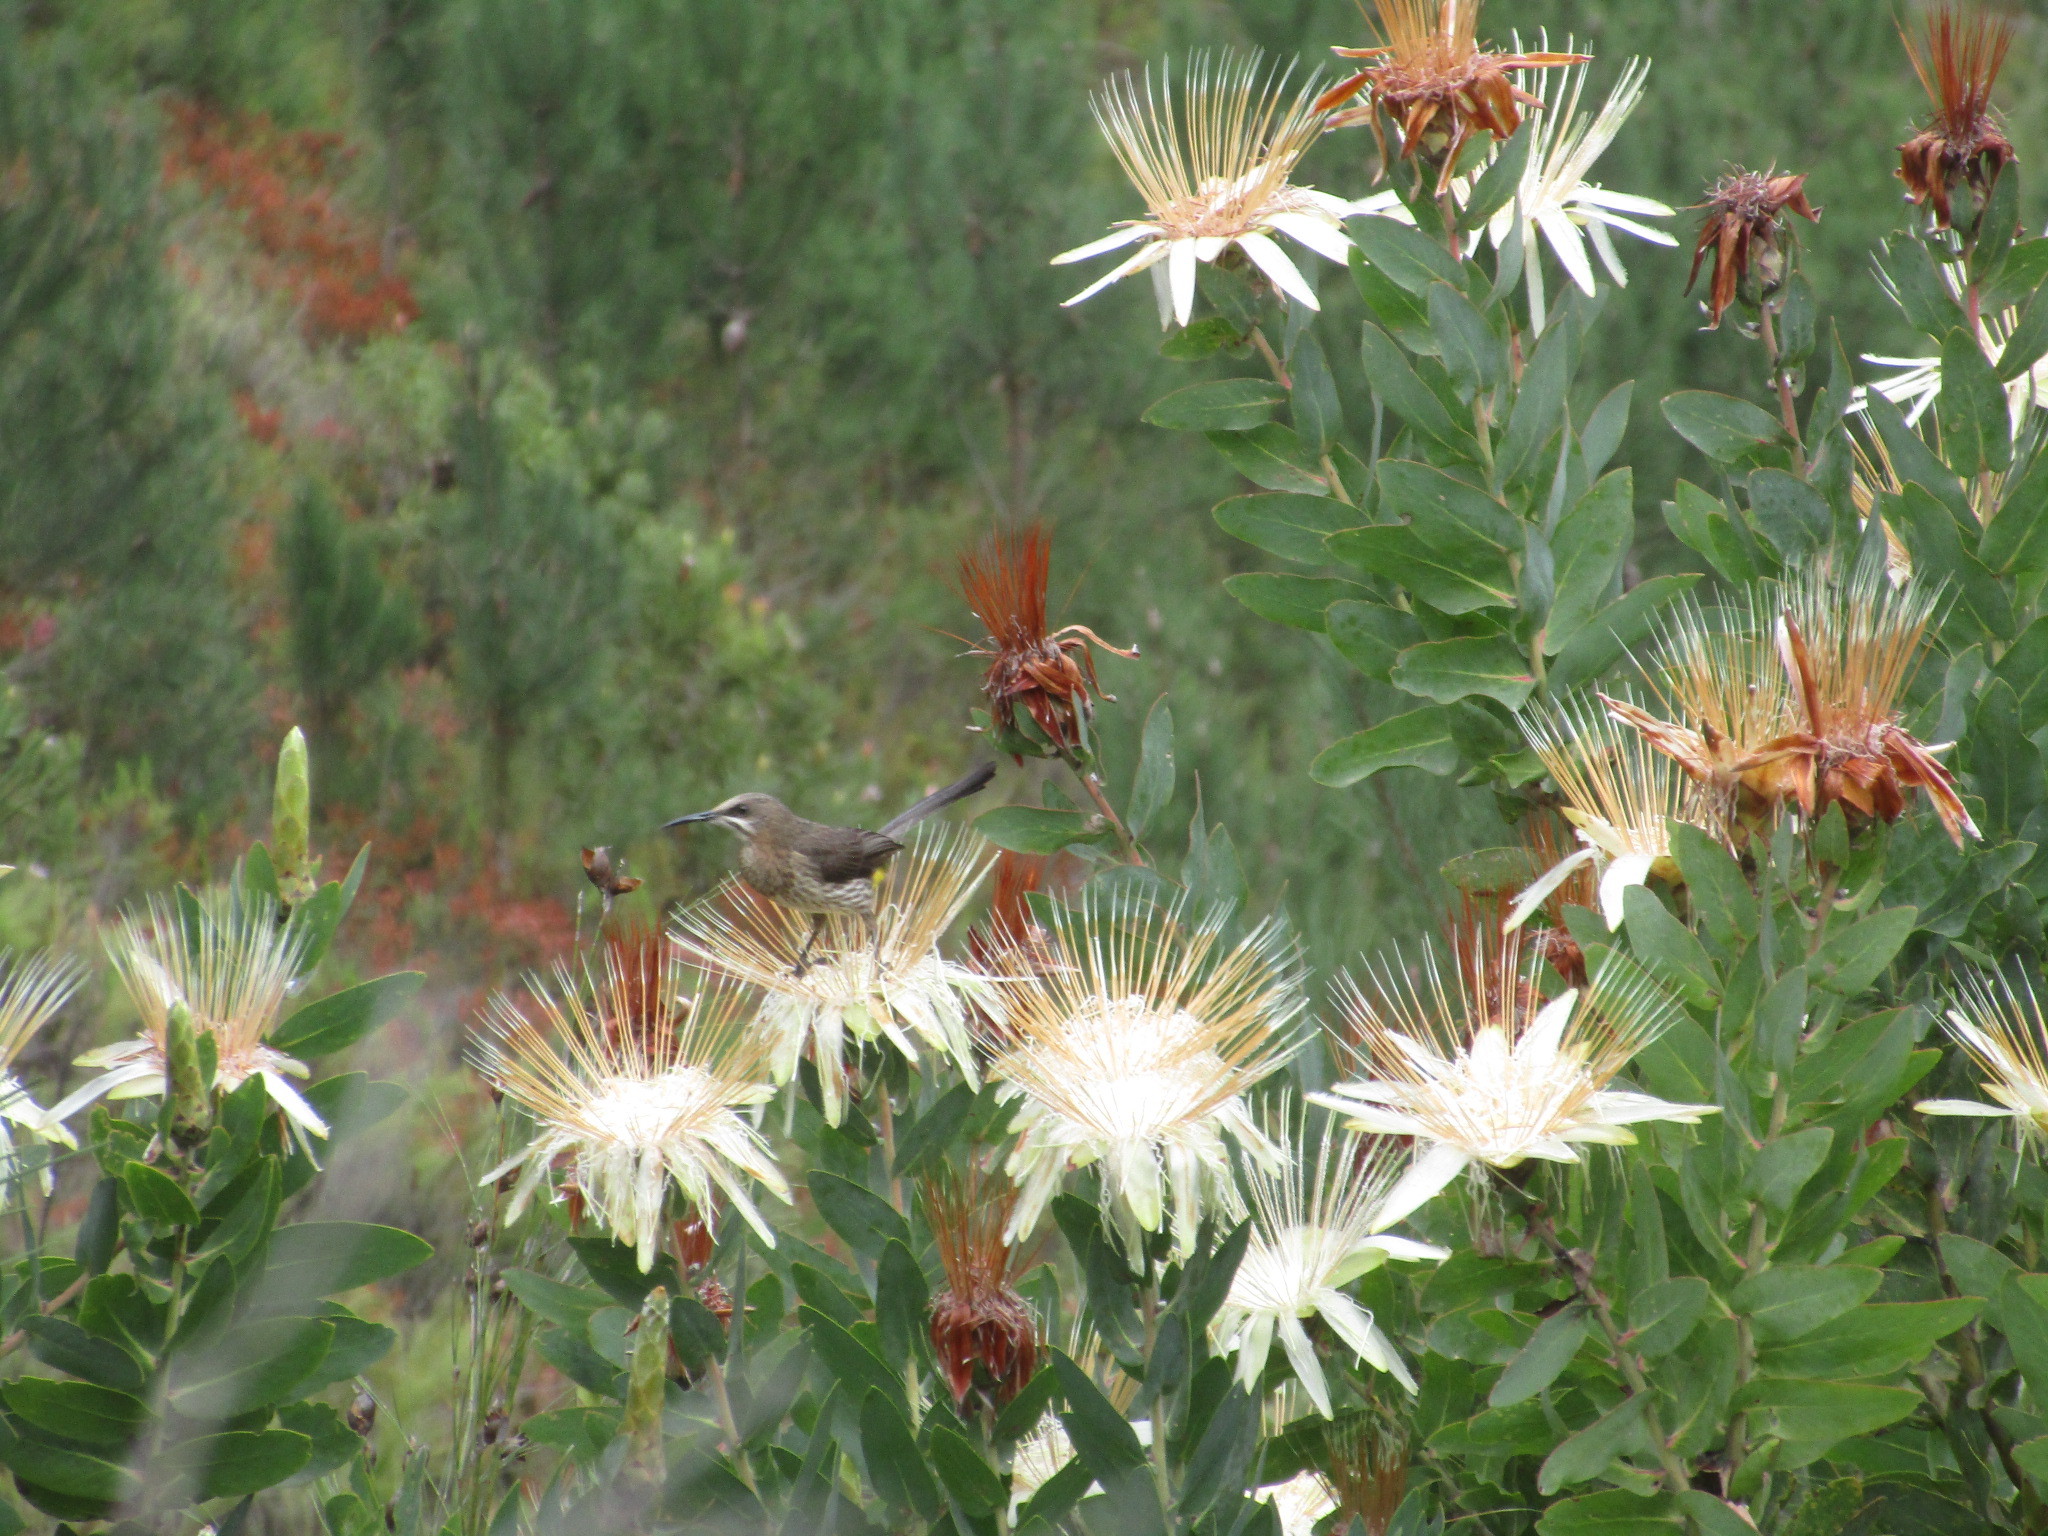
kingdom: Animalia
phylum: Chordata
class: Aves
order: Passeriformes
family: Promeropidae
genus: Promerops
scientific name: Promerops cafer
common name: Cape sugarbird
